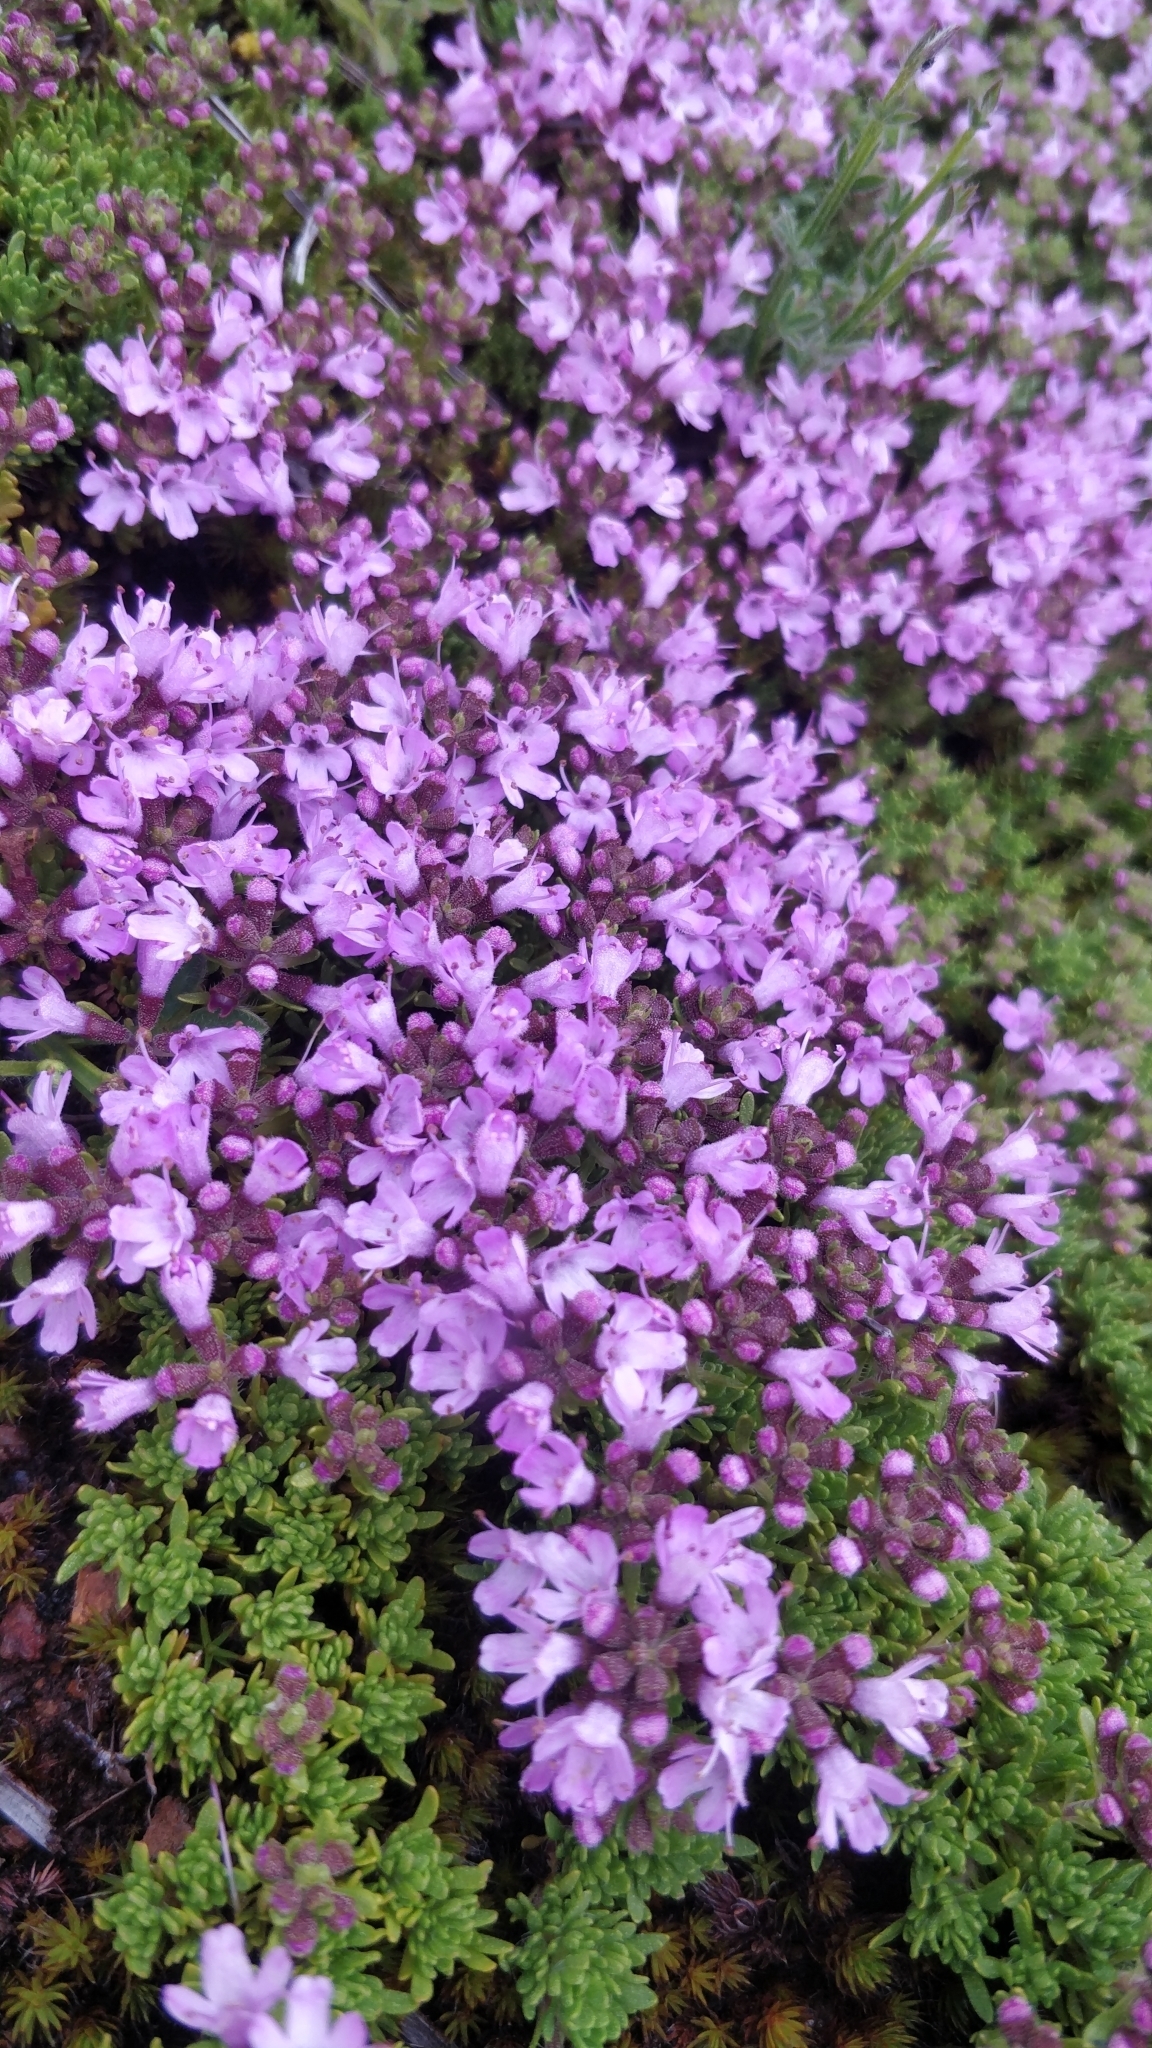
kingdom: Plantae
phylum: Tracheophyta
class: Magnoliopsida
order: Lamiales
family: Lamiaceae
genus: Thymus
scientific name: Thymus caespititius
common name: Azores thyme
